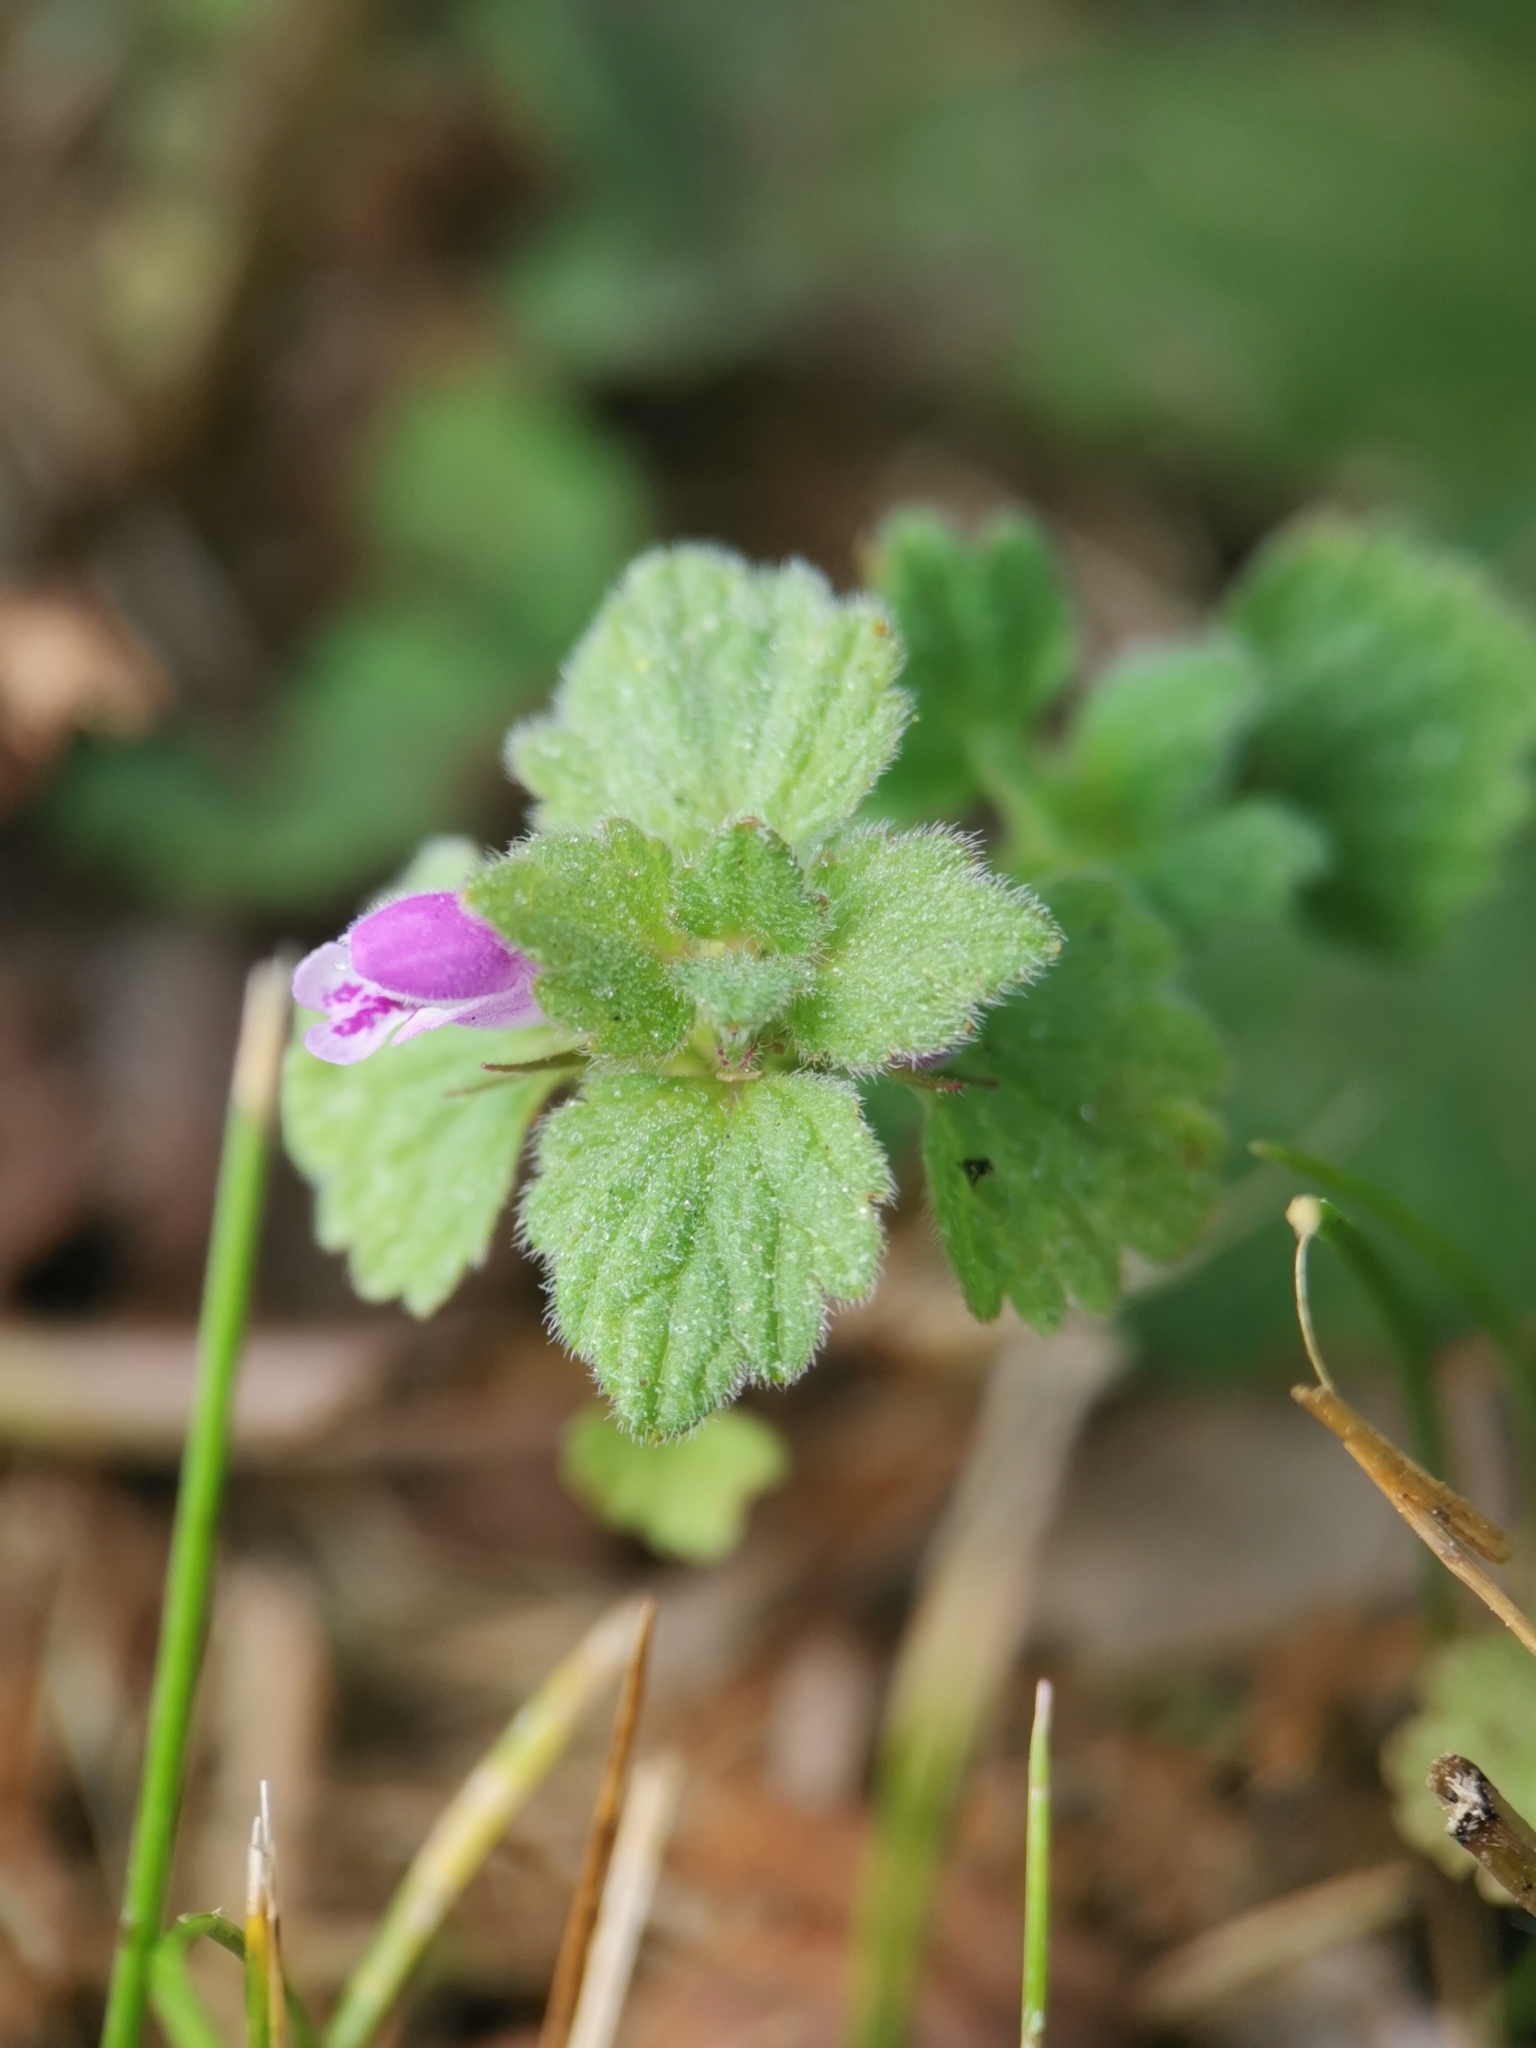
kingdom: Plantae
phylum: Tracheophyta
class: Magnoliopsida
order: Lamiales
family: Lamiaceae
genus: Lamium
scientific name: Lamium purpureum
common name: Red dead-nettle
